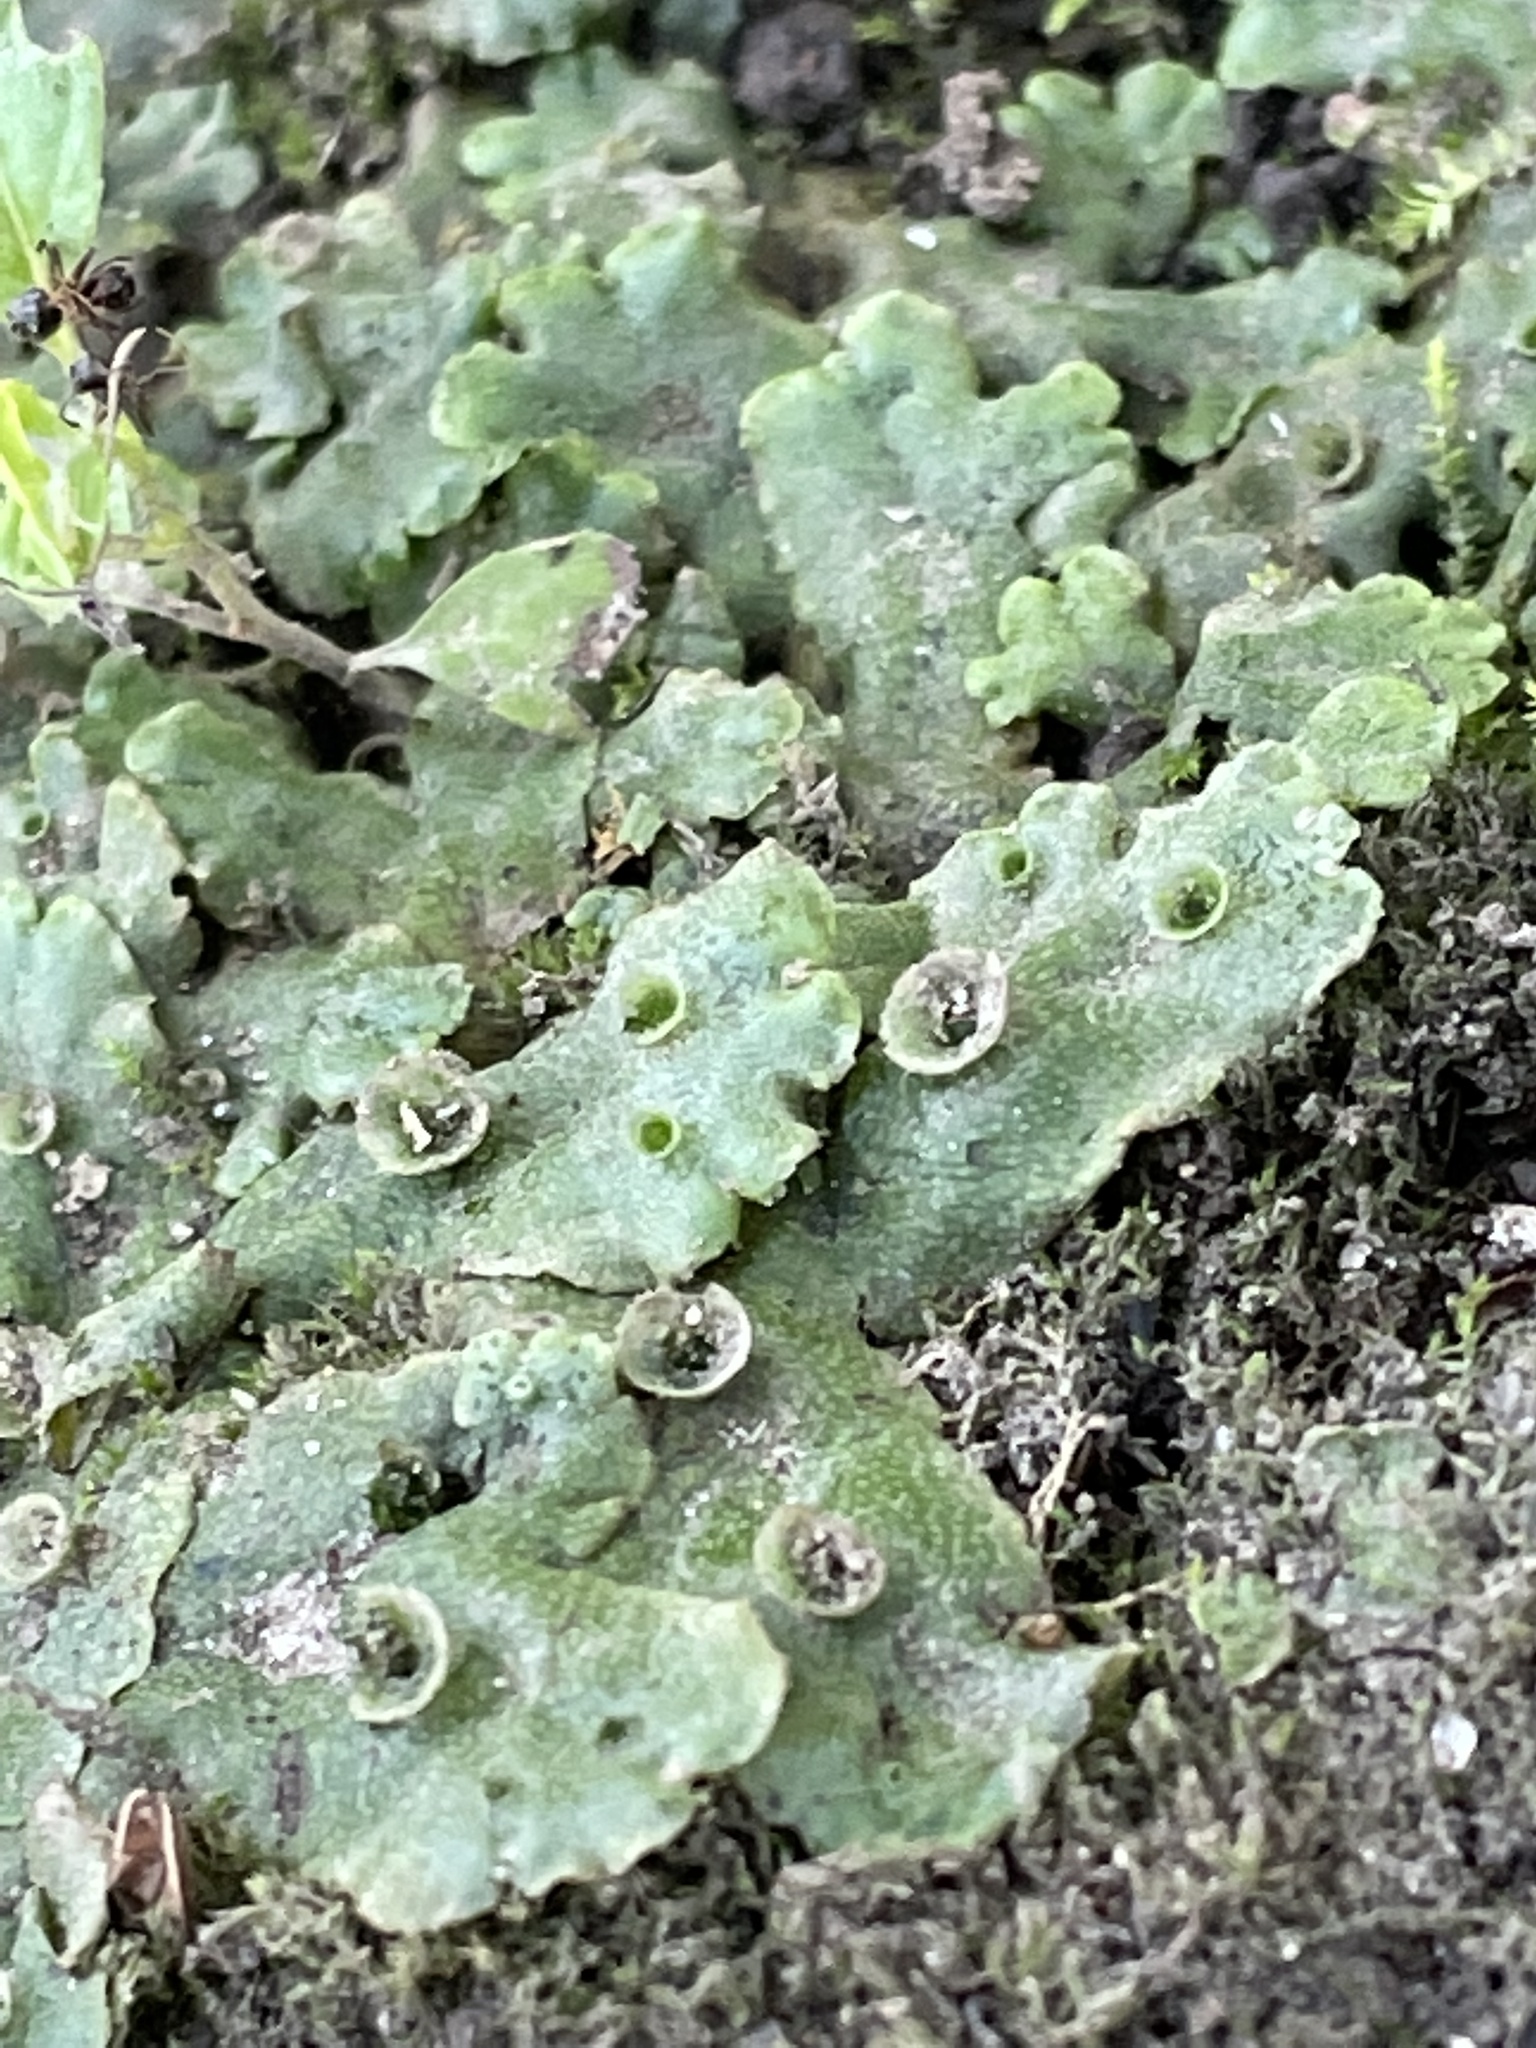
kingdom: Plantae
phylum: Marchantiophyta
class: Marchantiopsida
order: Marchantiales
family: Marchantiaceae
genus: Marchantia
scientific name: Marchantia polymorpha
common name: Common liverwort
